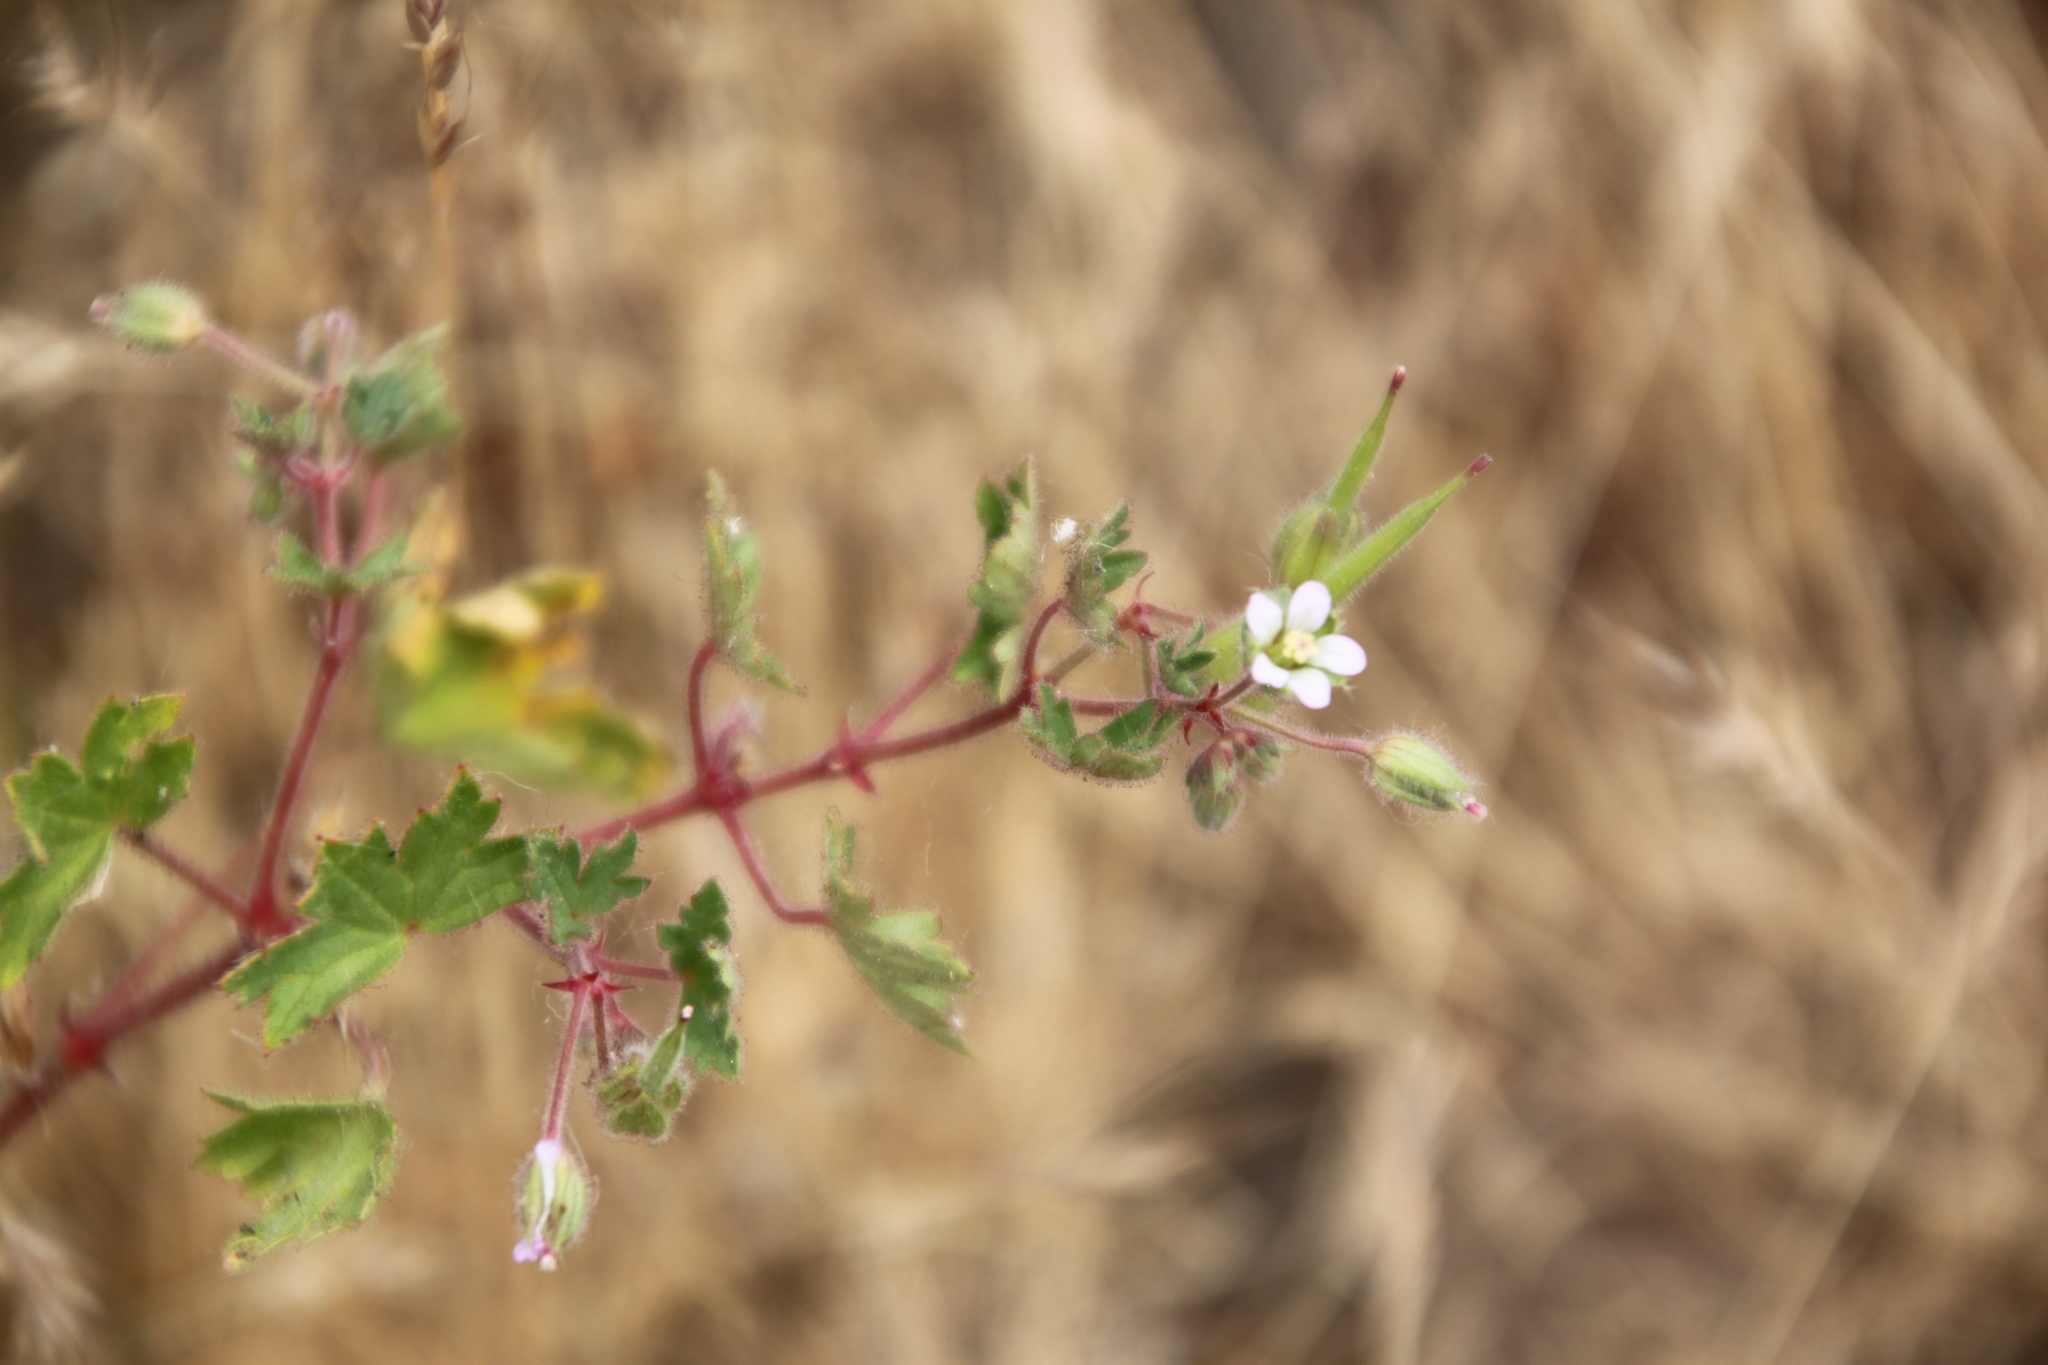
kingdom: Plantae
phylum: Tracheophyta
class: Magnoliopsida
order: Geraniales
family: Geraniaceae
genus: Geranium
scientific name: Geranium rotundifolium
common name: Round-leaved crane's-bill
